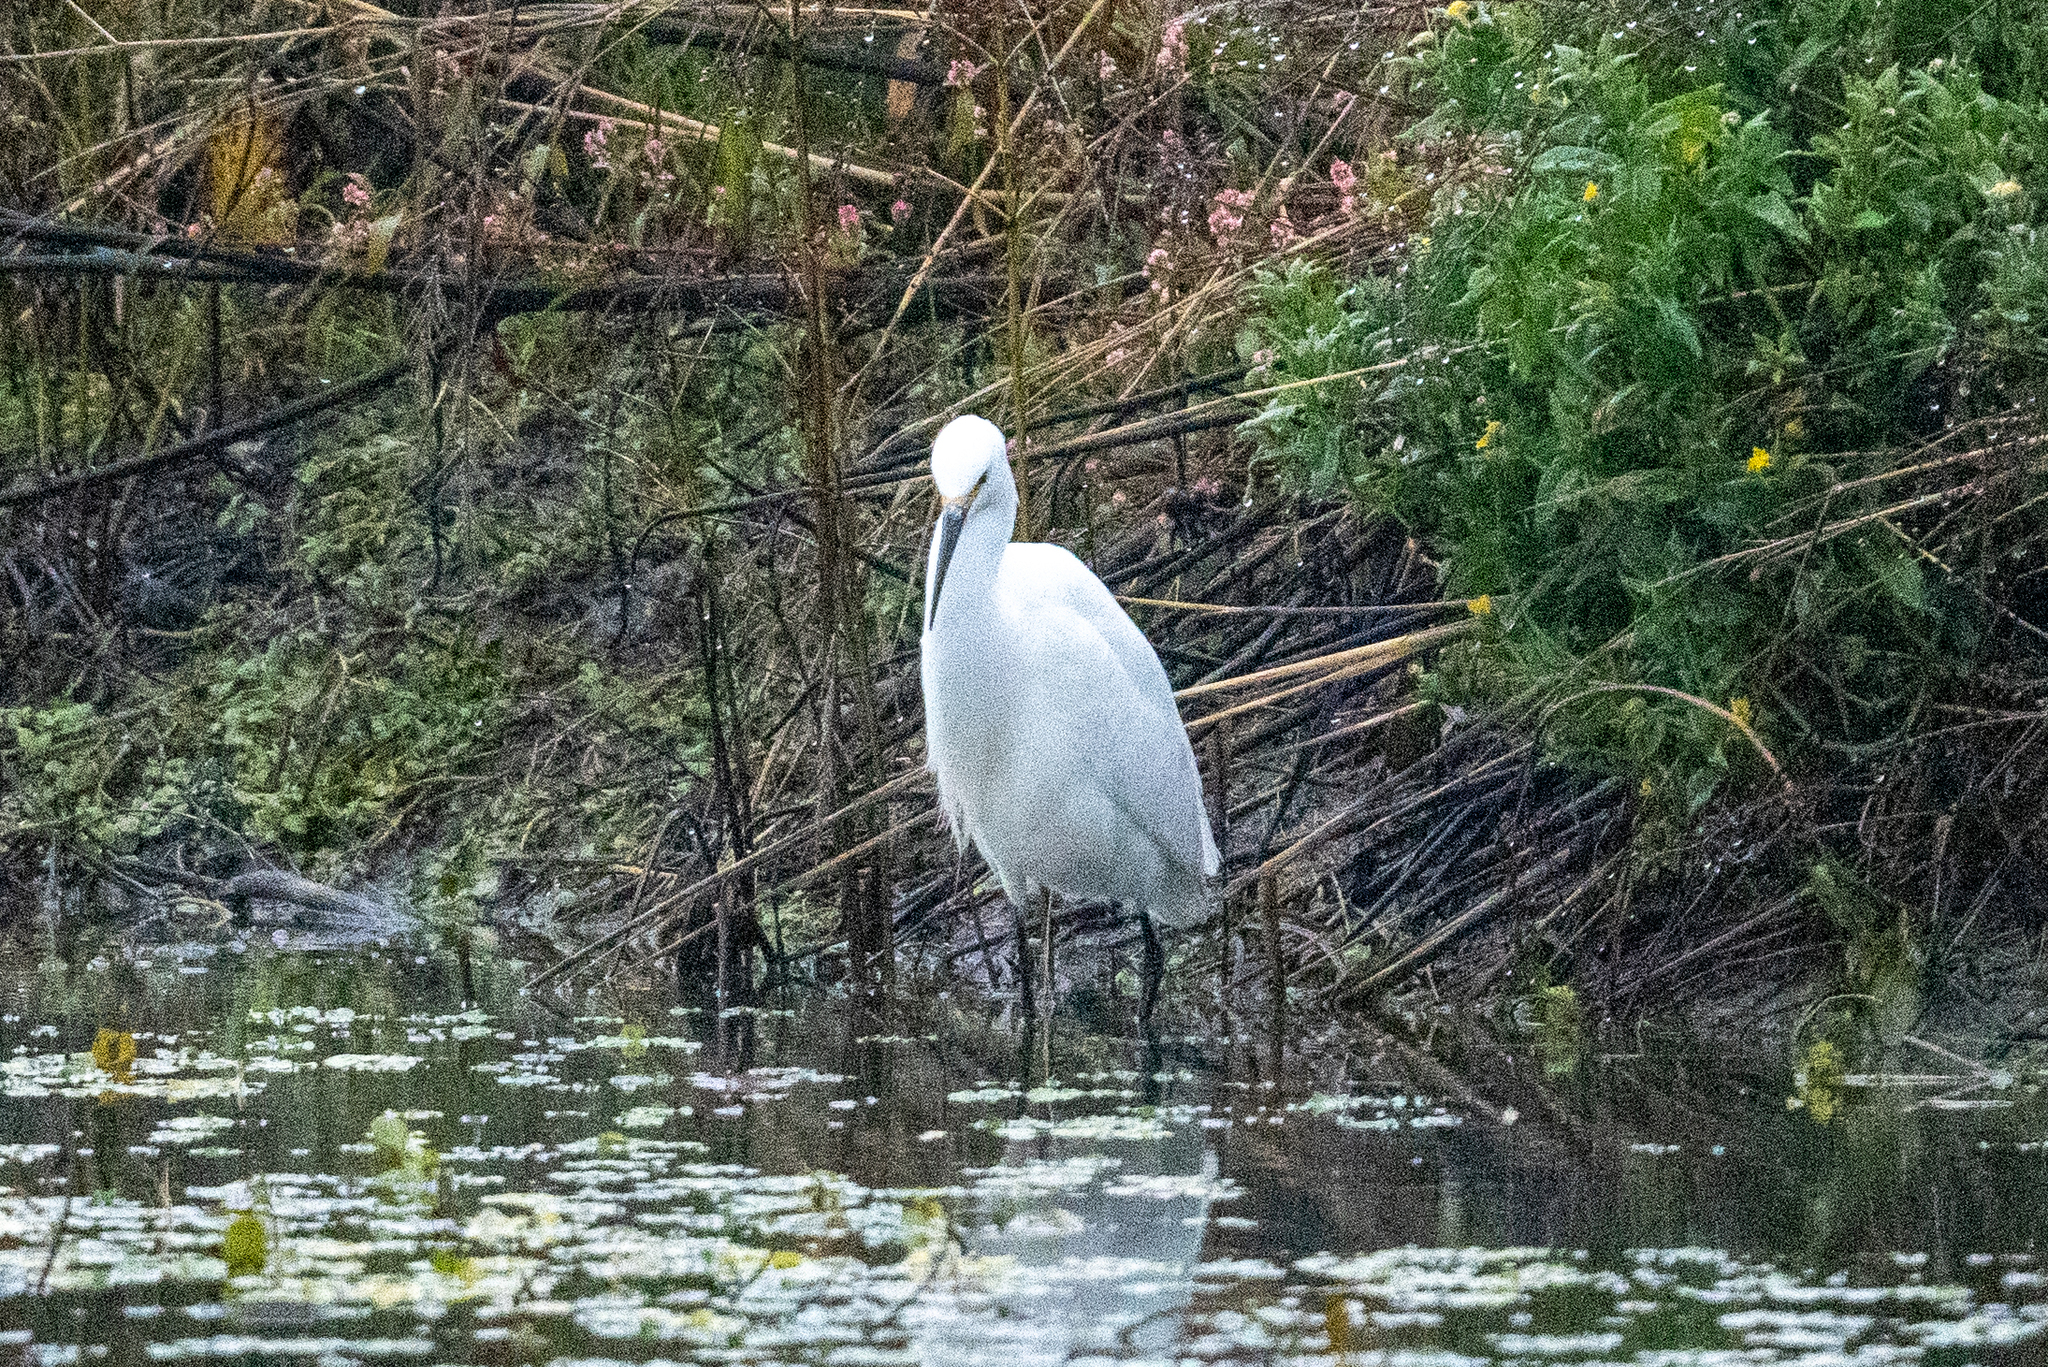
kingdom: Animalia
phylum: Chordata
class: Aves
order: Pelecaniformes
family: Ardeidae
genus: Egretta
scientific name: Egretta thula
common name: Snowy egret
